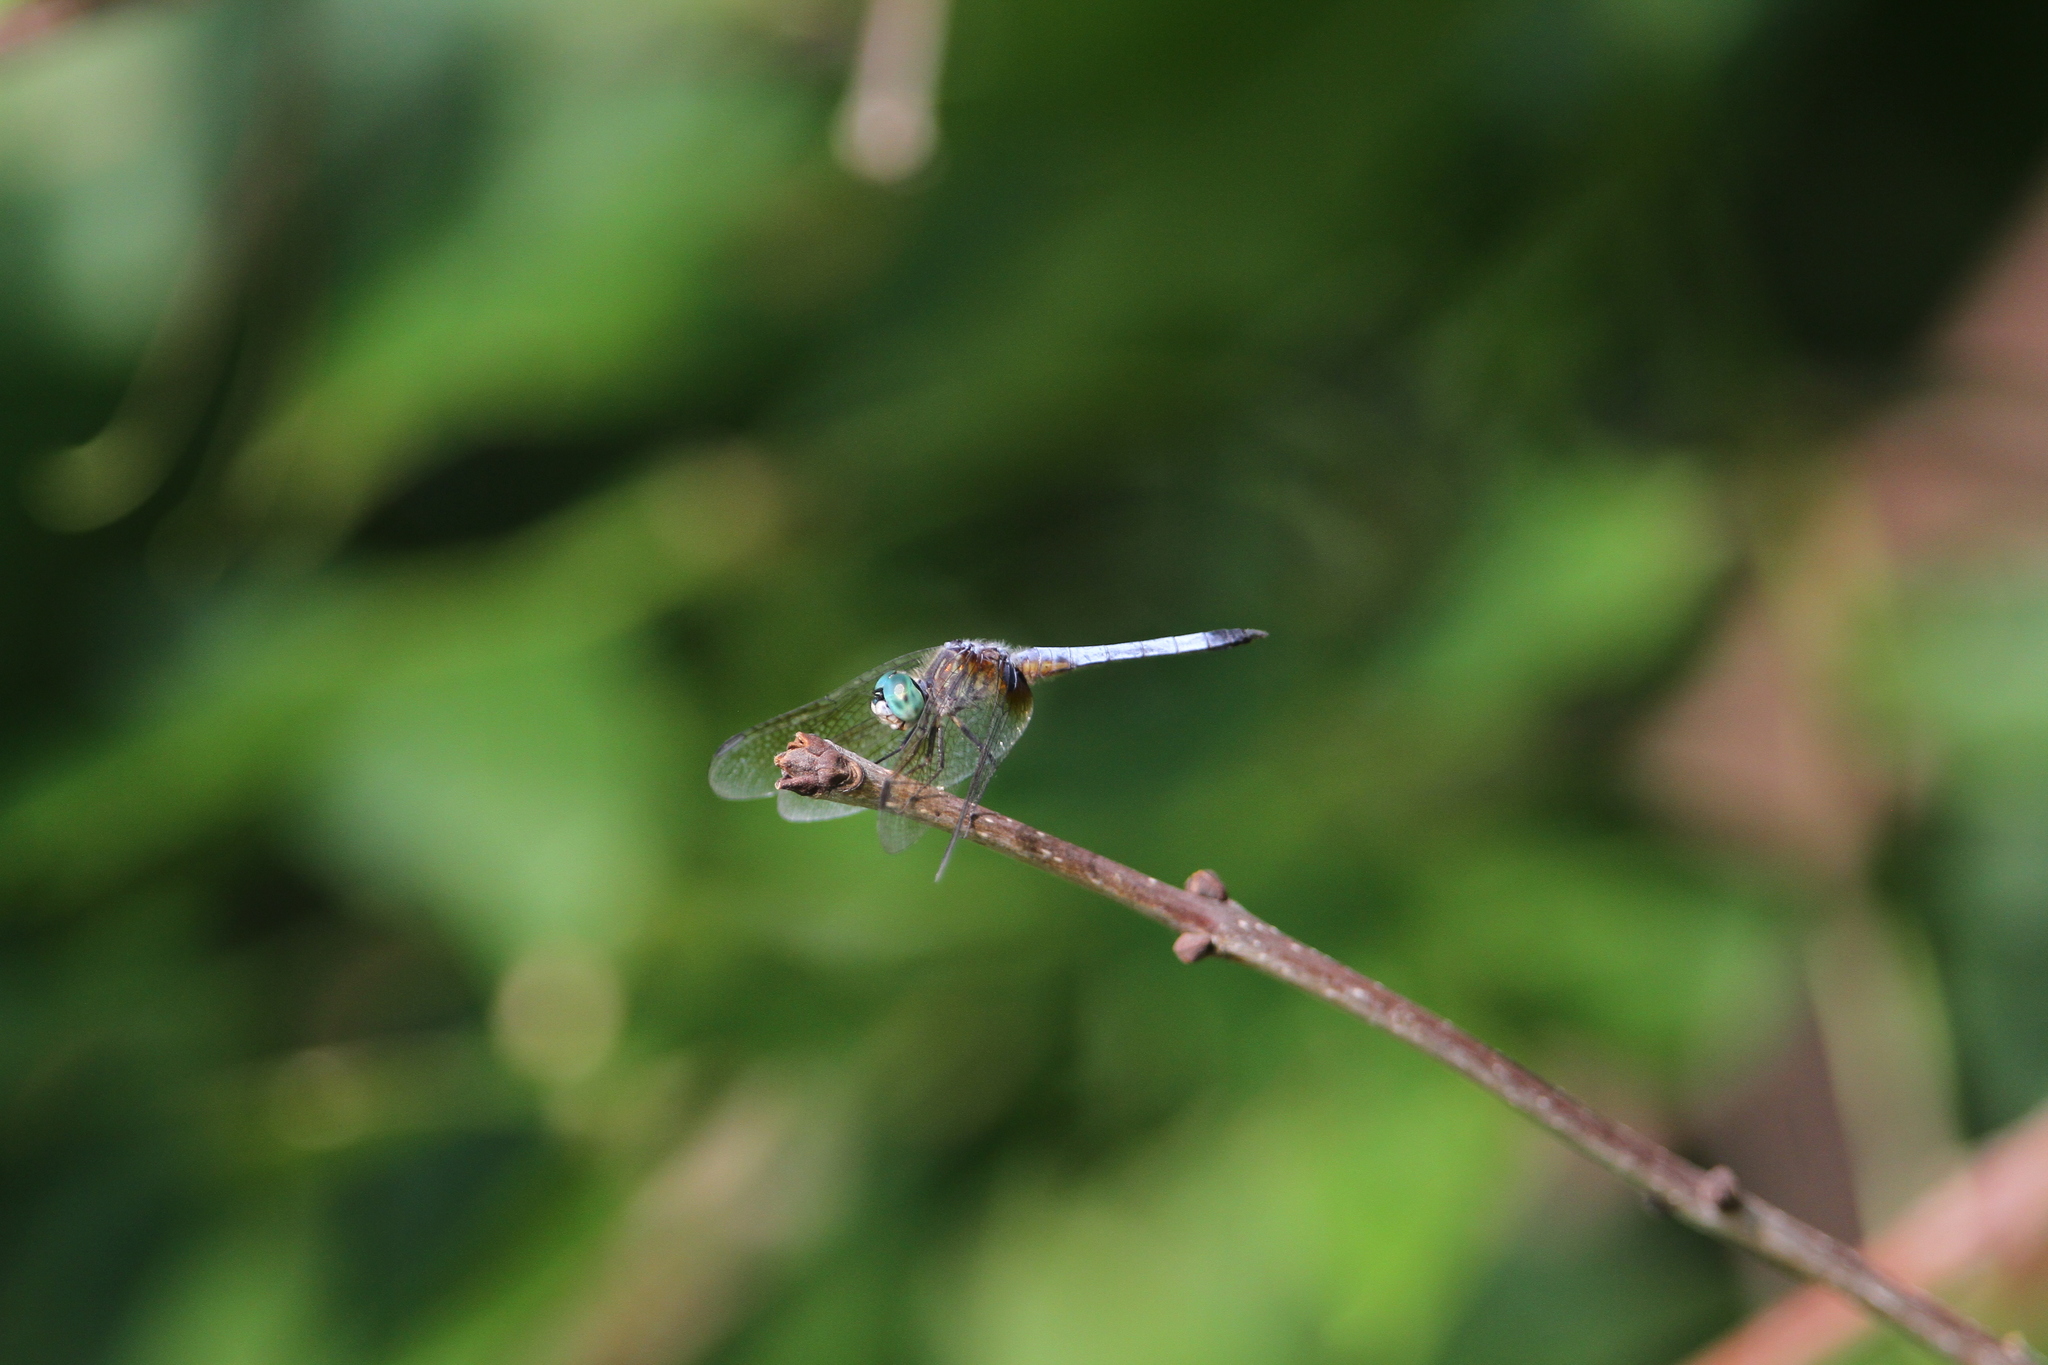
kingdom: Animalia
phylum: Arthropoda
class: Insecta
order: Odonata
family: Libellulidae
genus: Pachydiplax
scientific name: Pachydiplax longipennis
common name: Blue dasher
